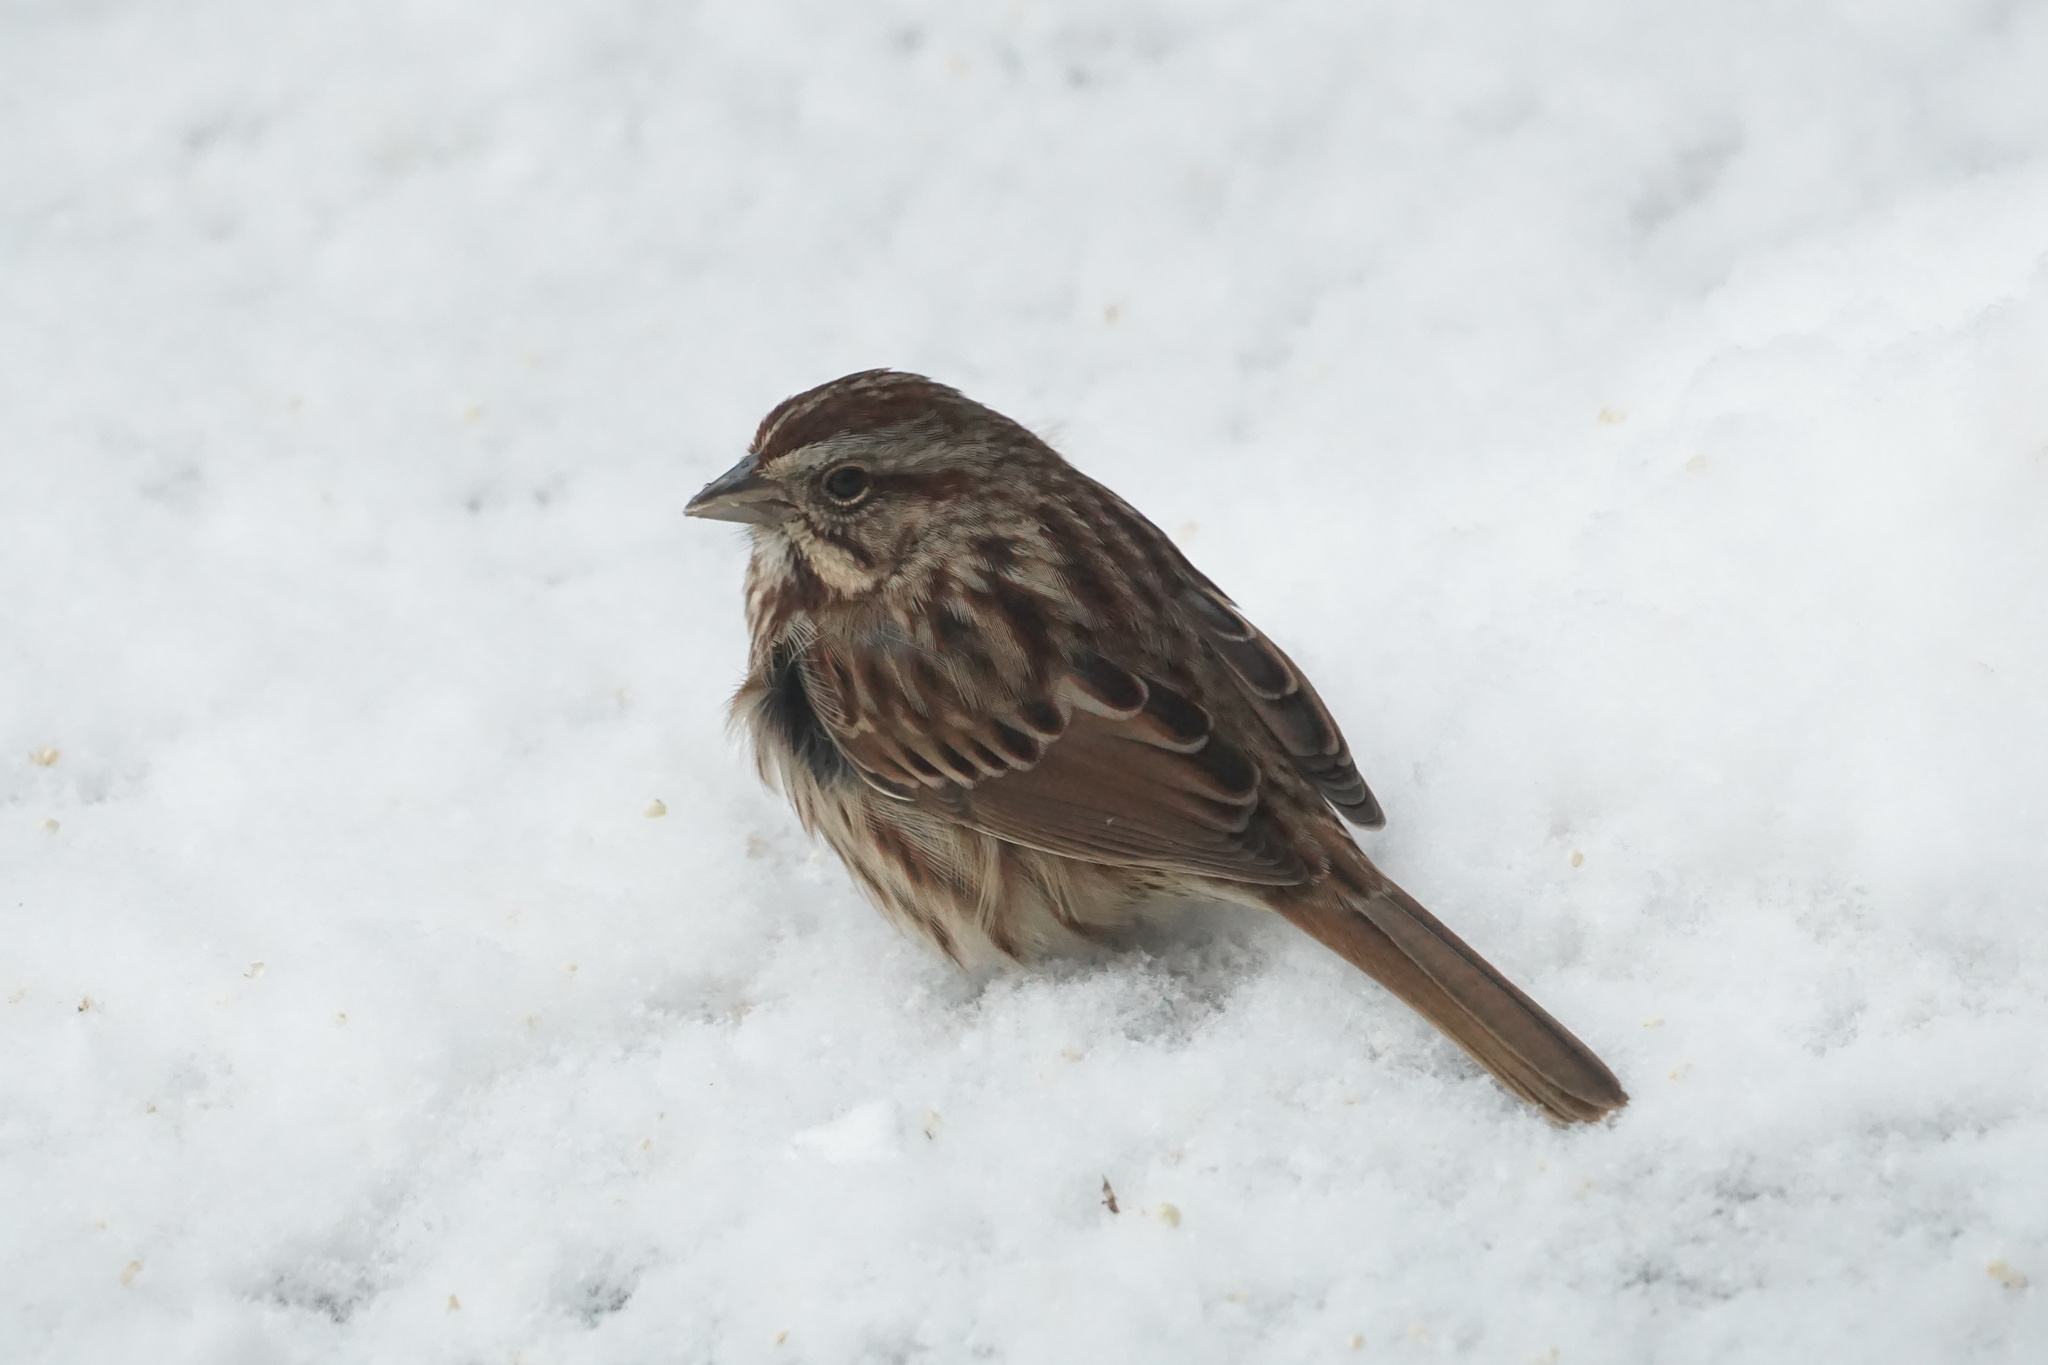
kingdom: Animalia
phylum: Chordata
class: Aves
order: Passeriformes
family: Passerellidae
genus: Melospiza
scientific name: Melospiza melodia
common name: Song sparrow
